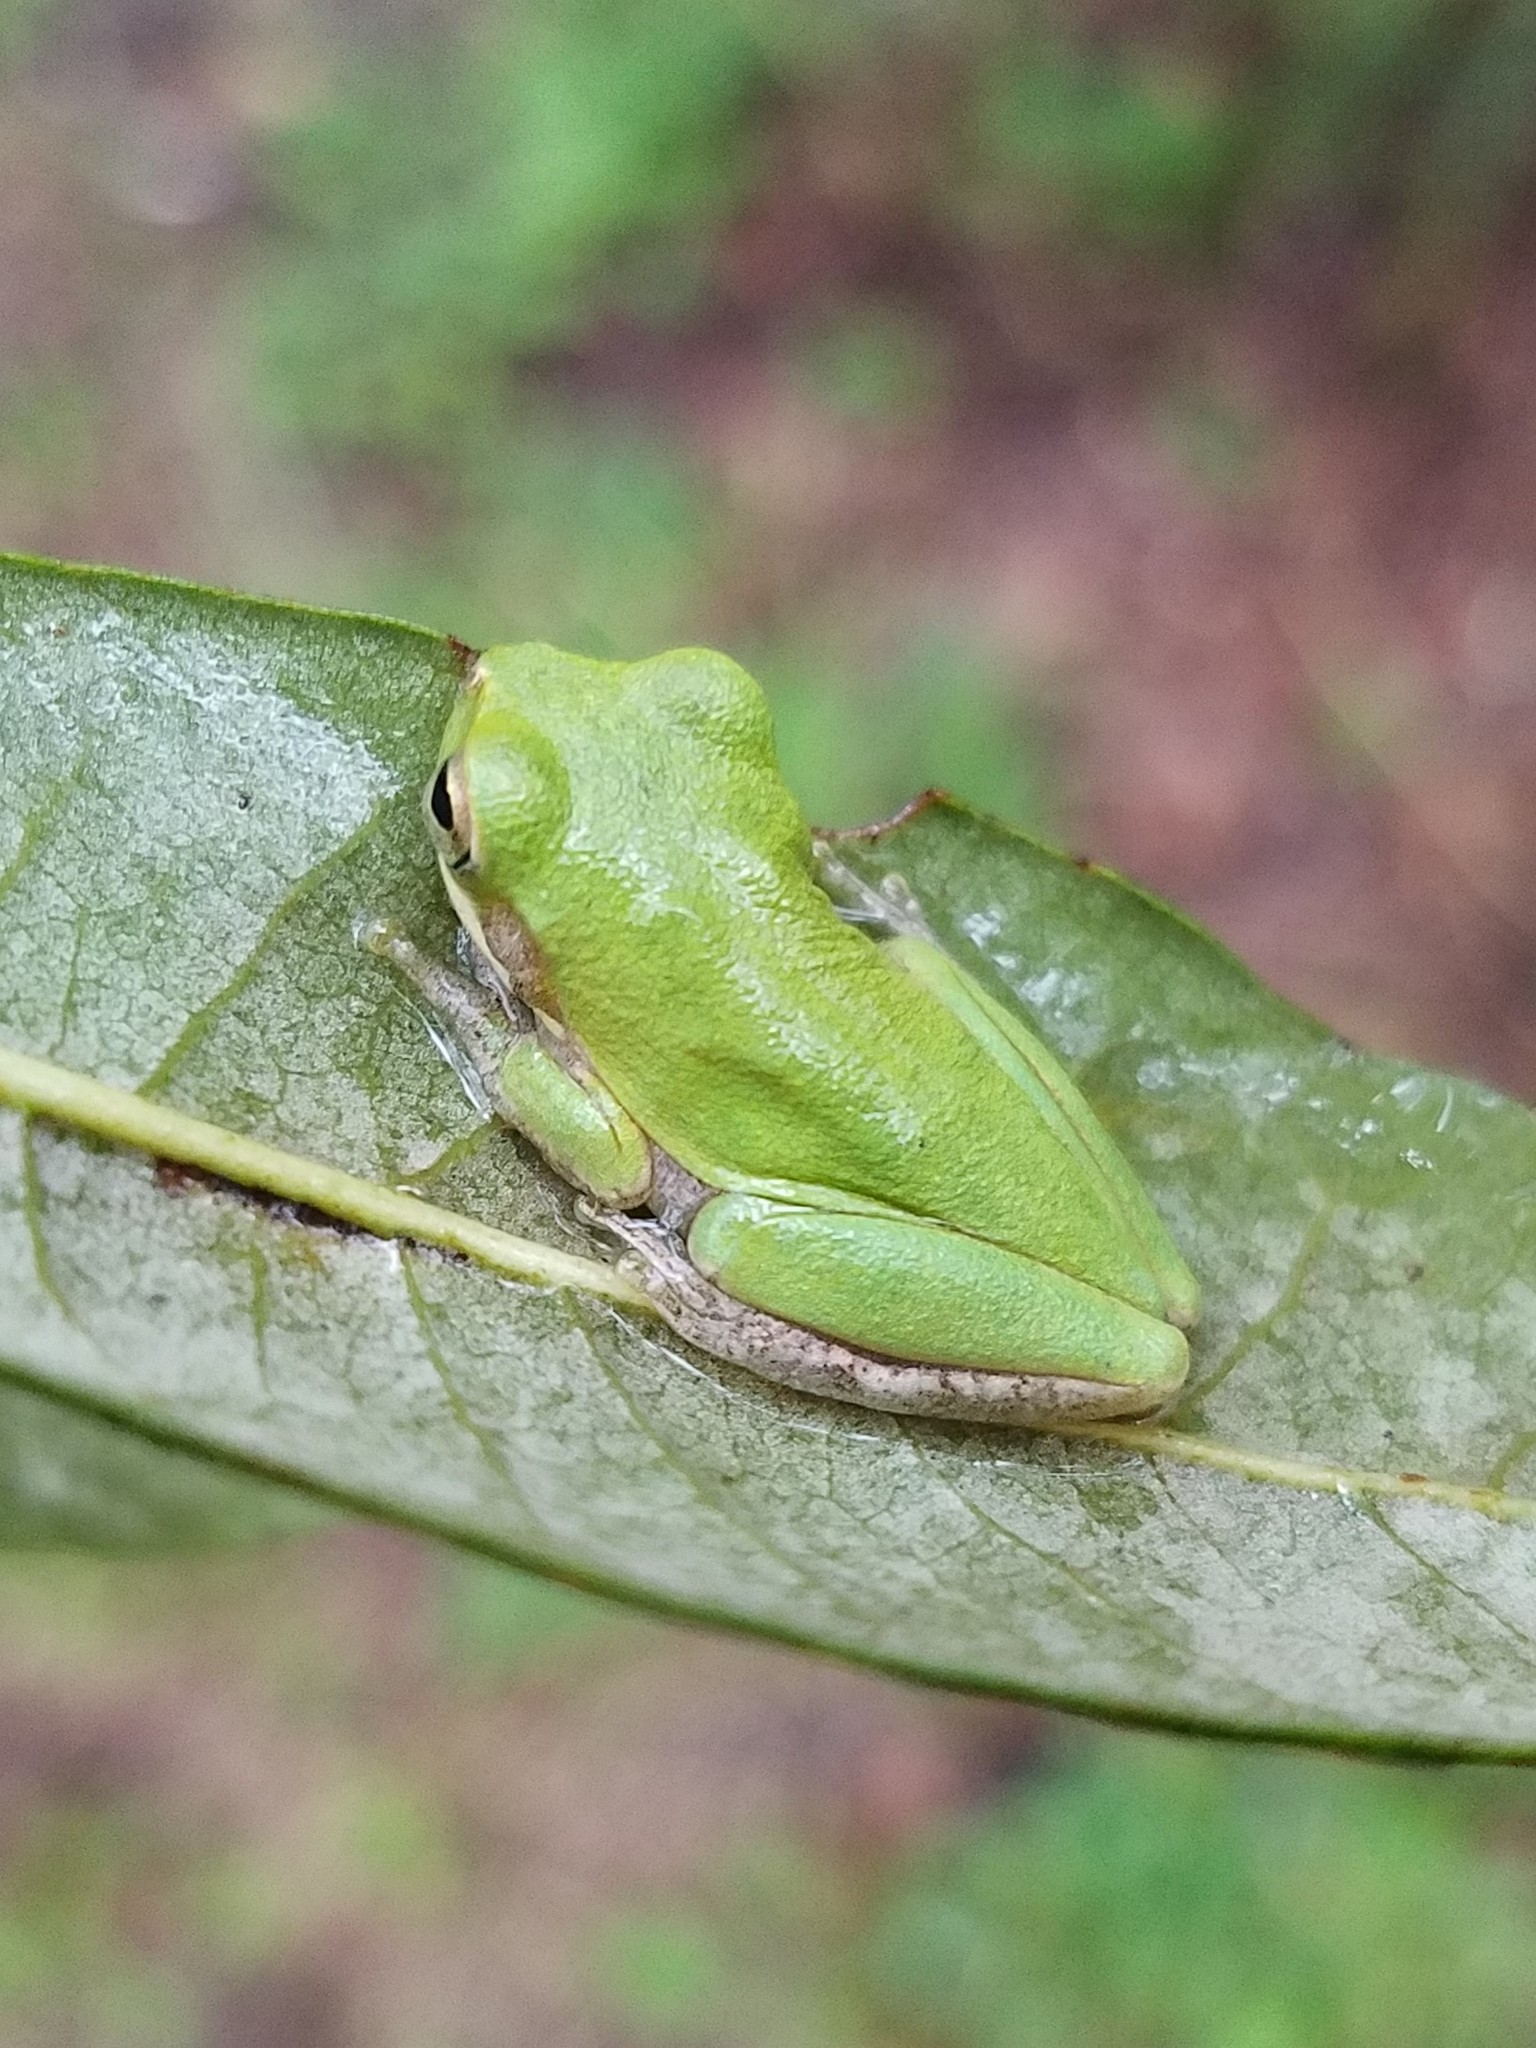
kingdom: Animalia
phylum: Chordata
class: Amphibia
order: Anura
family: Hylidae
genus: Dryophytes
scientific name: Dryophytes squirellus
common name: Squirrel treefrog
